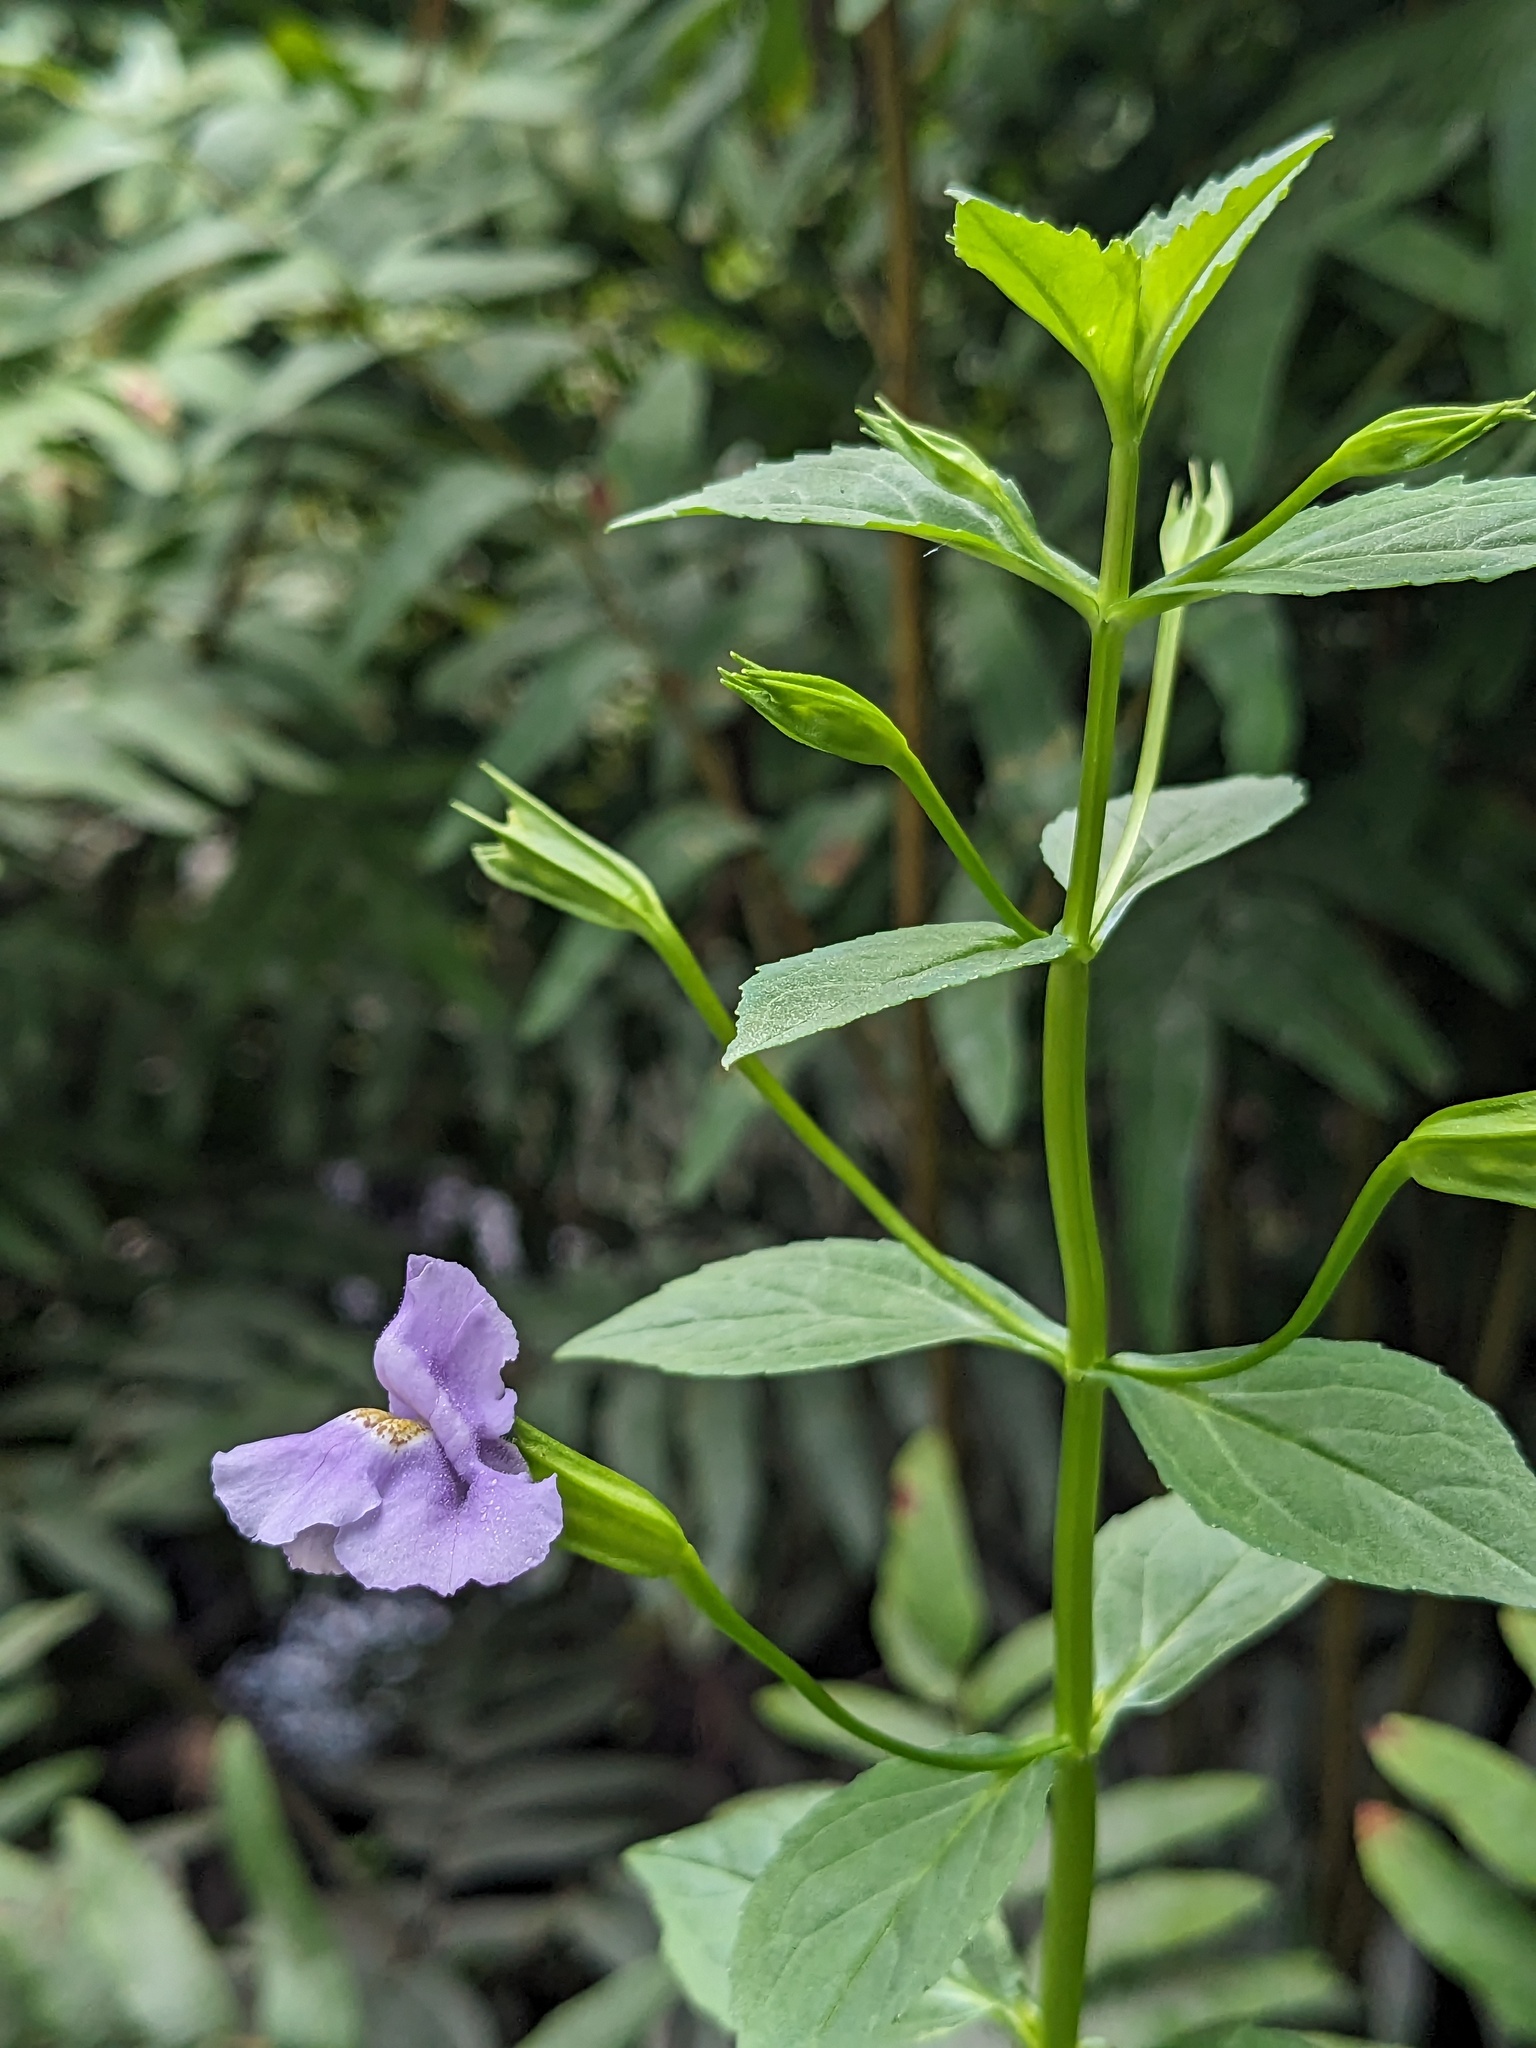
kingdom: Plantae
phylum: Tracheophyta
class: Magnoliopsida
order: Lamiales
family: Phrymaceae
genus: Mimulus
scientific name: Mimulus ringens
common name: Allegheny monkeyflower
